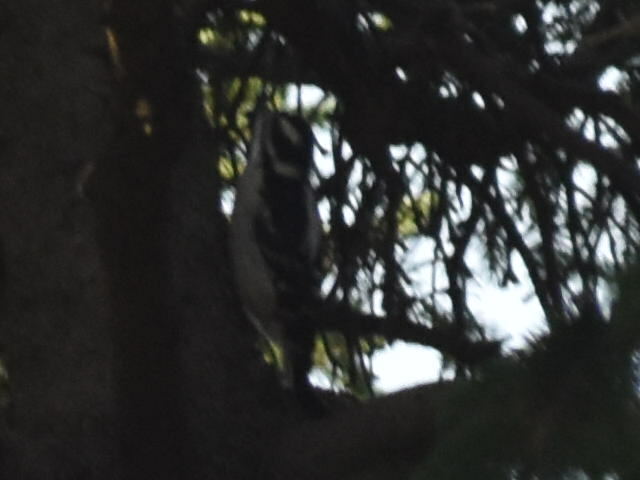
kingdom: Animalia
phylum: Chordata
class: Aves
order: Piciformes
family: Picidae
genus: Dryobates
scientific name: Dryobates pubescens
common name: Downy woodpecker
